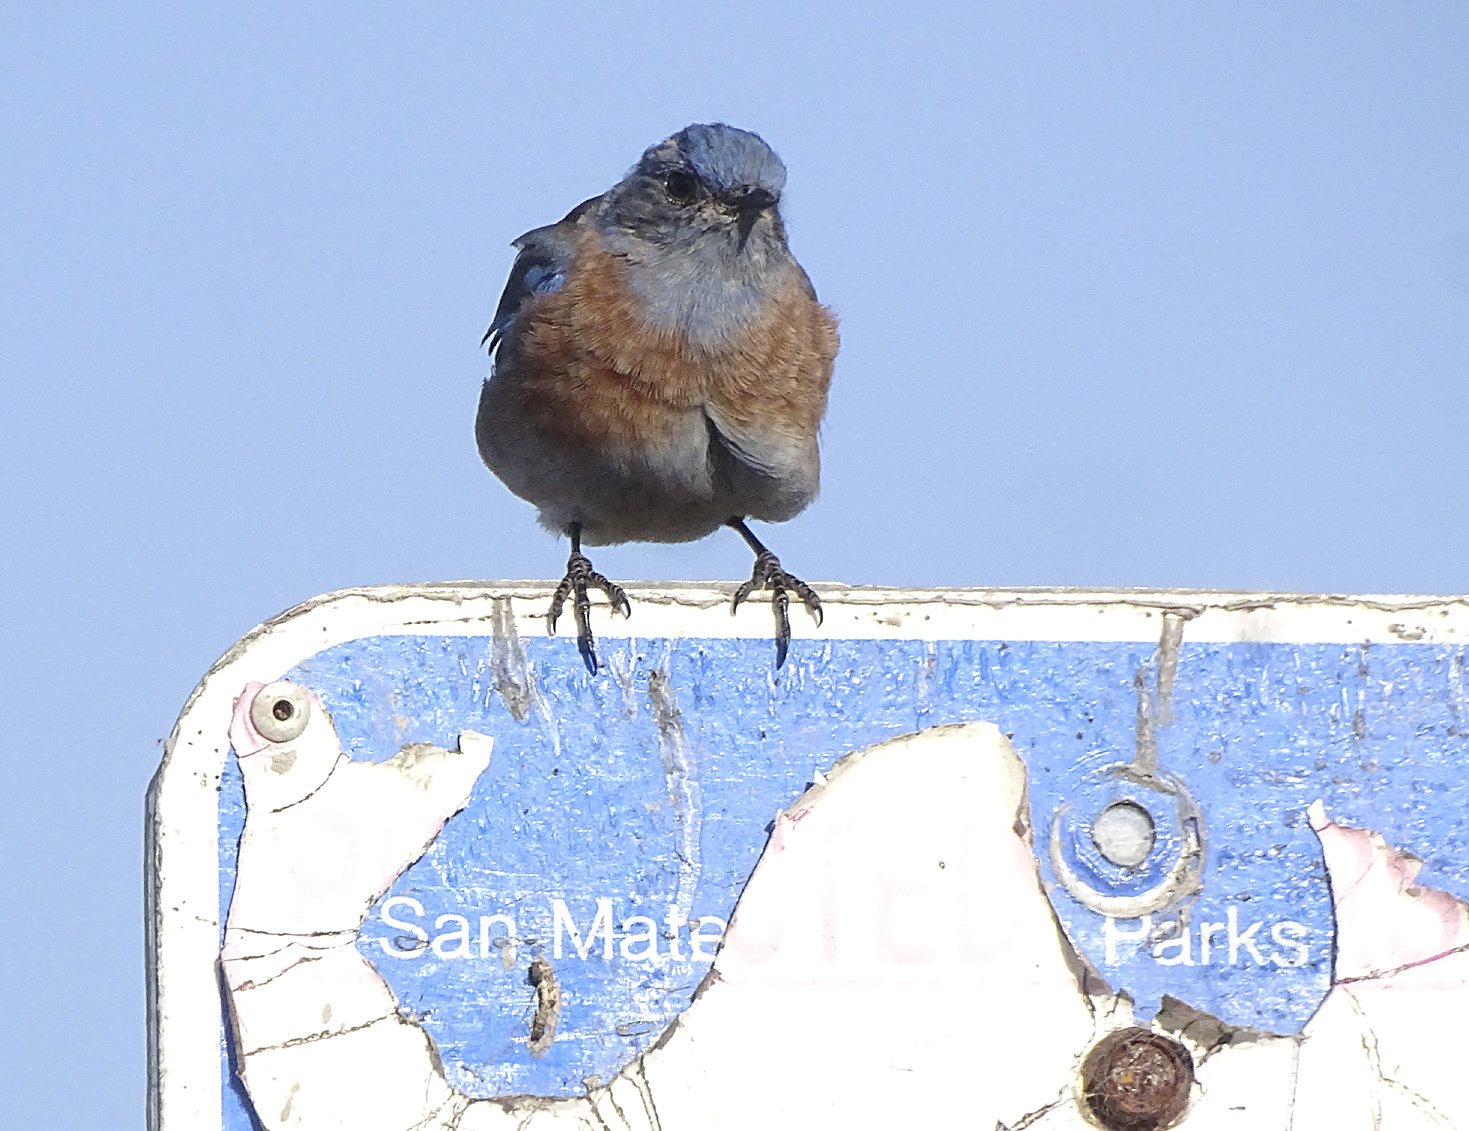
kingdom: Animalia
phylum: Chordata
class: Aves
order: Passeriformes
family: Turdidae
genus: Sialia
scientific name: Sialia mexicana
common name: Western bluebird
